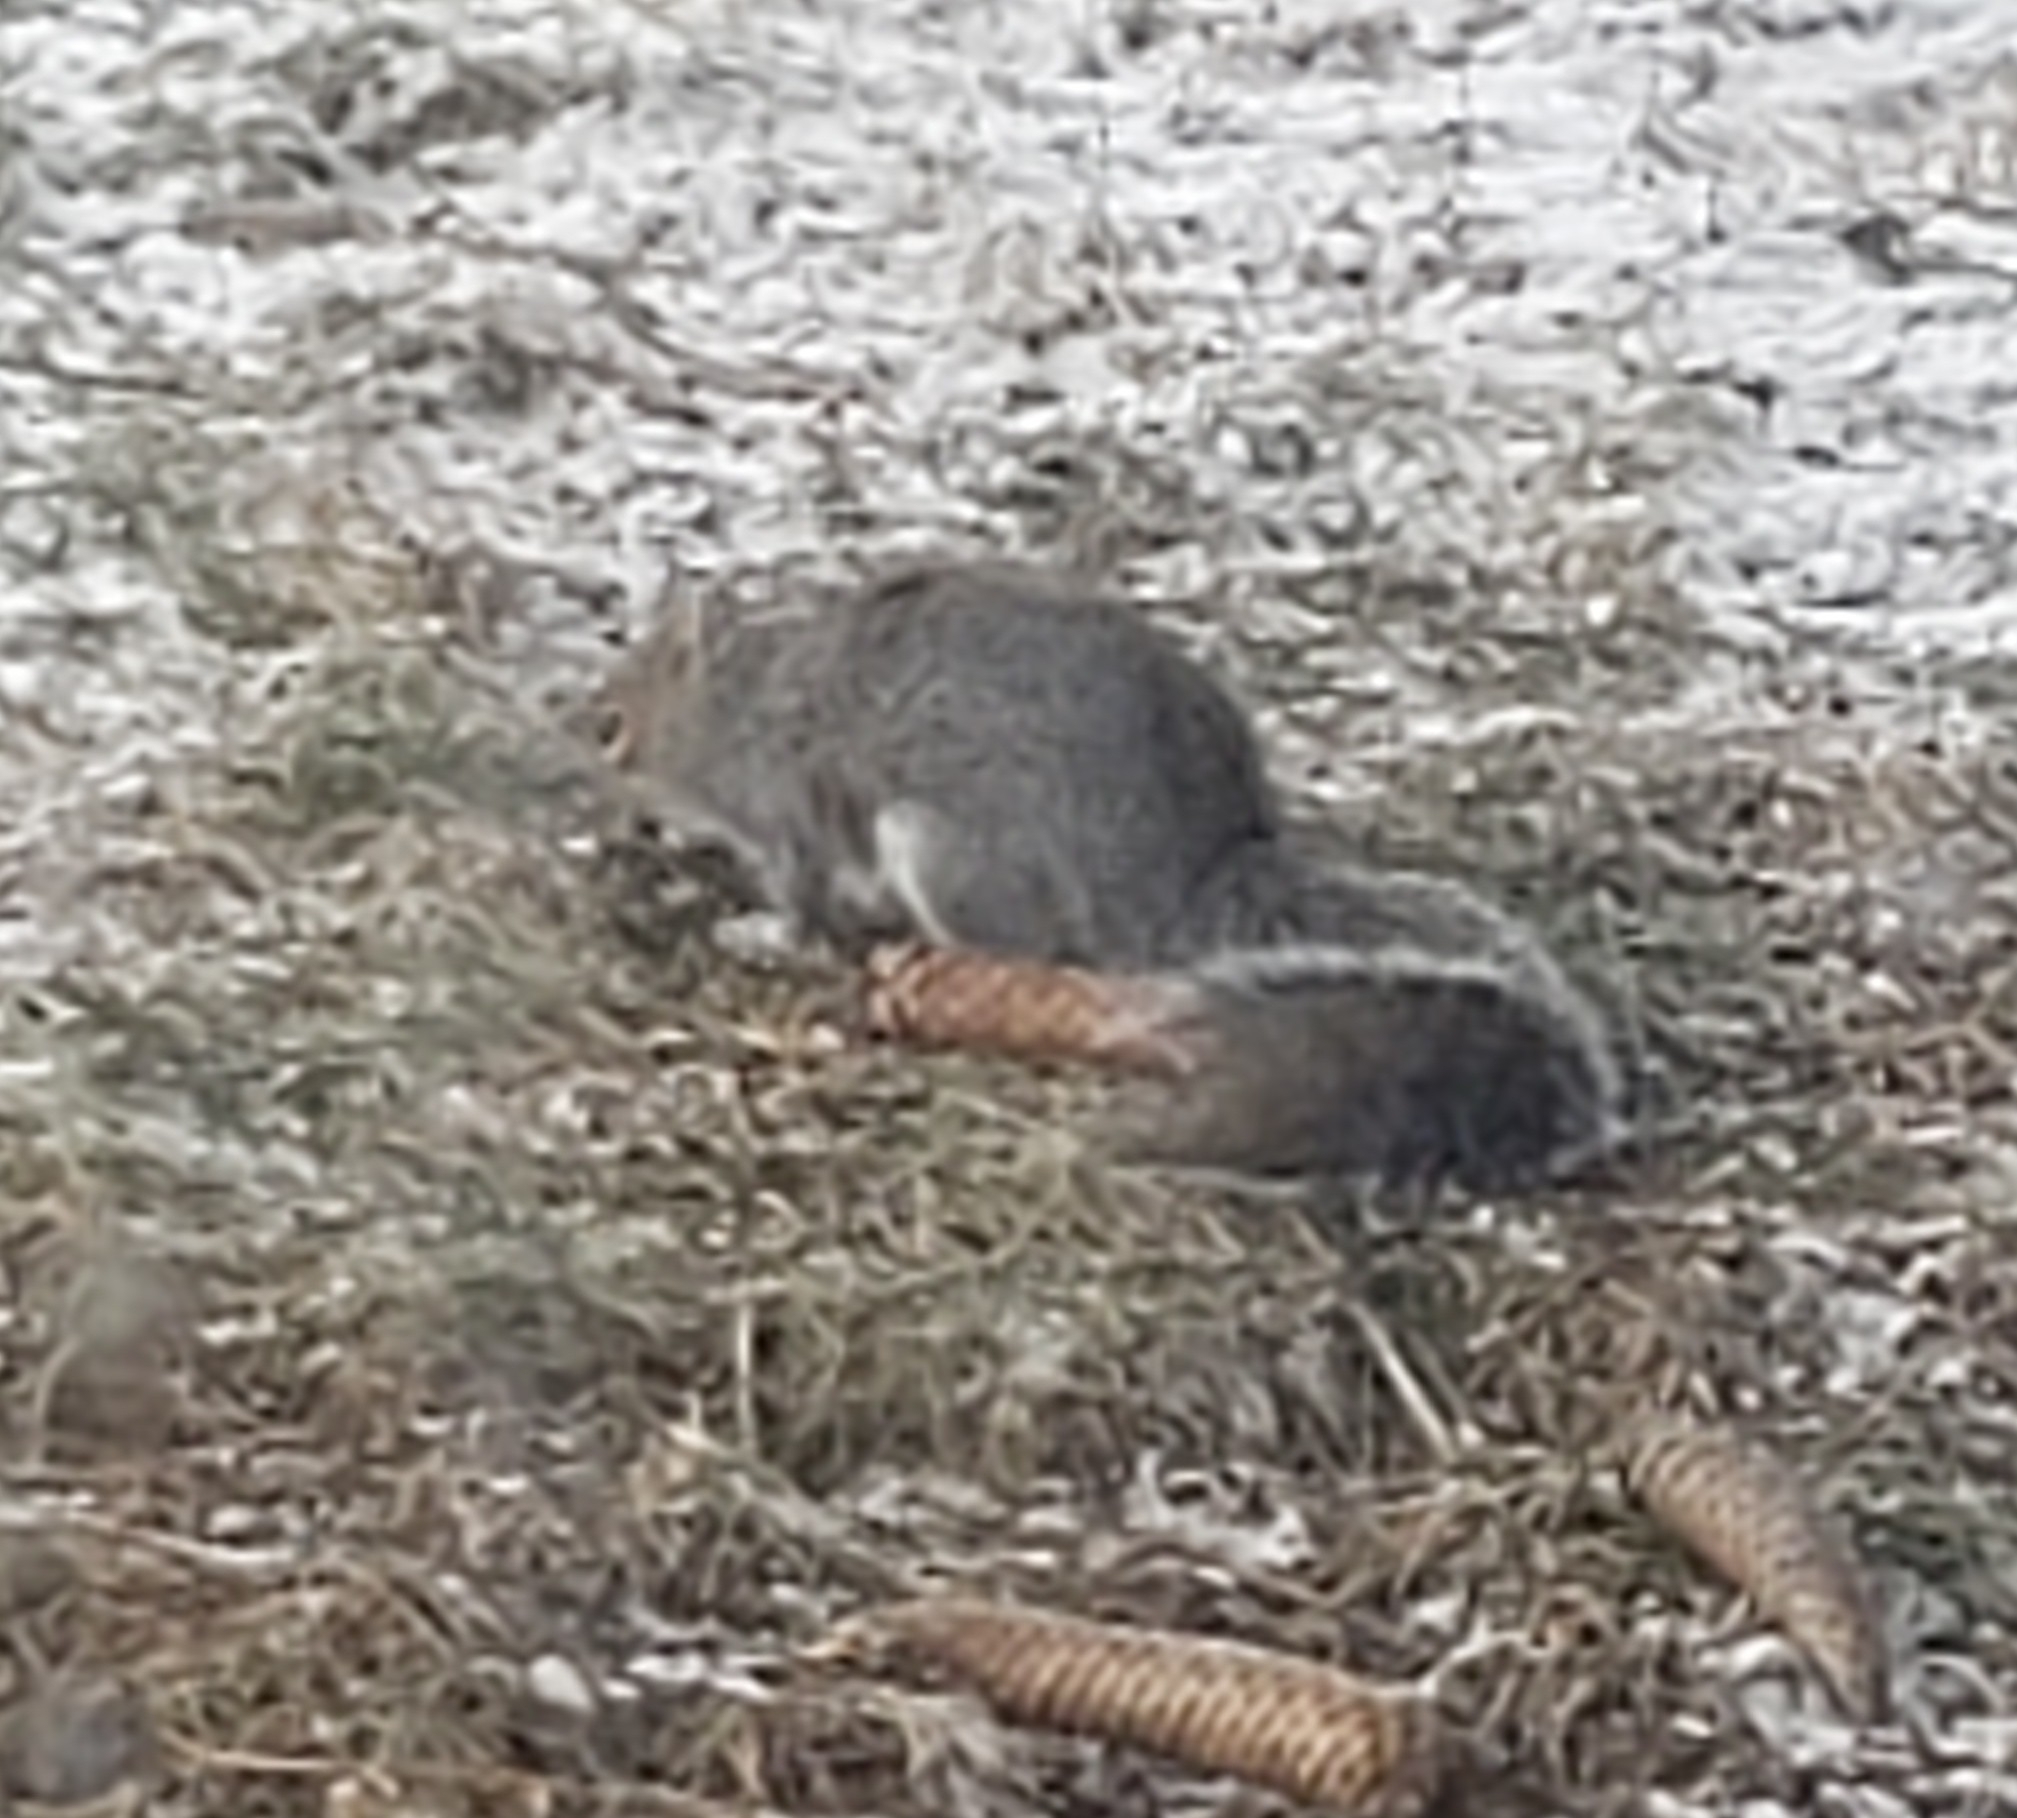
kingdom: Animalia
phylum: Chordata
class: Mammalia
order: Rodentia
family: Sciuridae
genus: Sciurus
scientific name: Sciurus carolinensis
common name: Eastern gray squirrel
